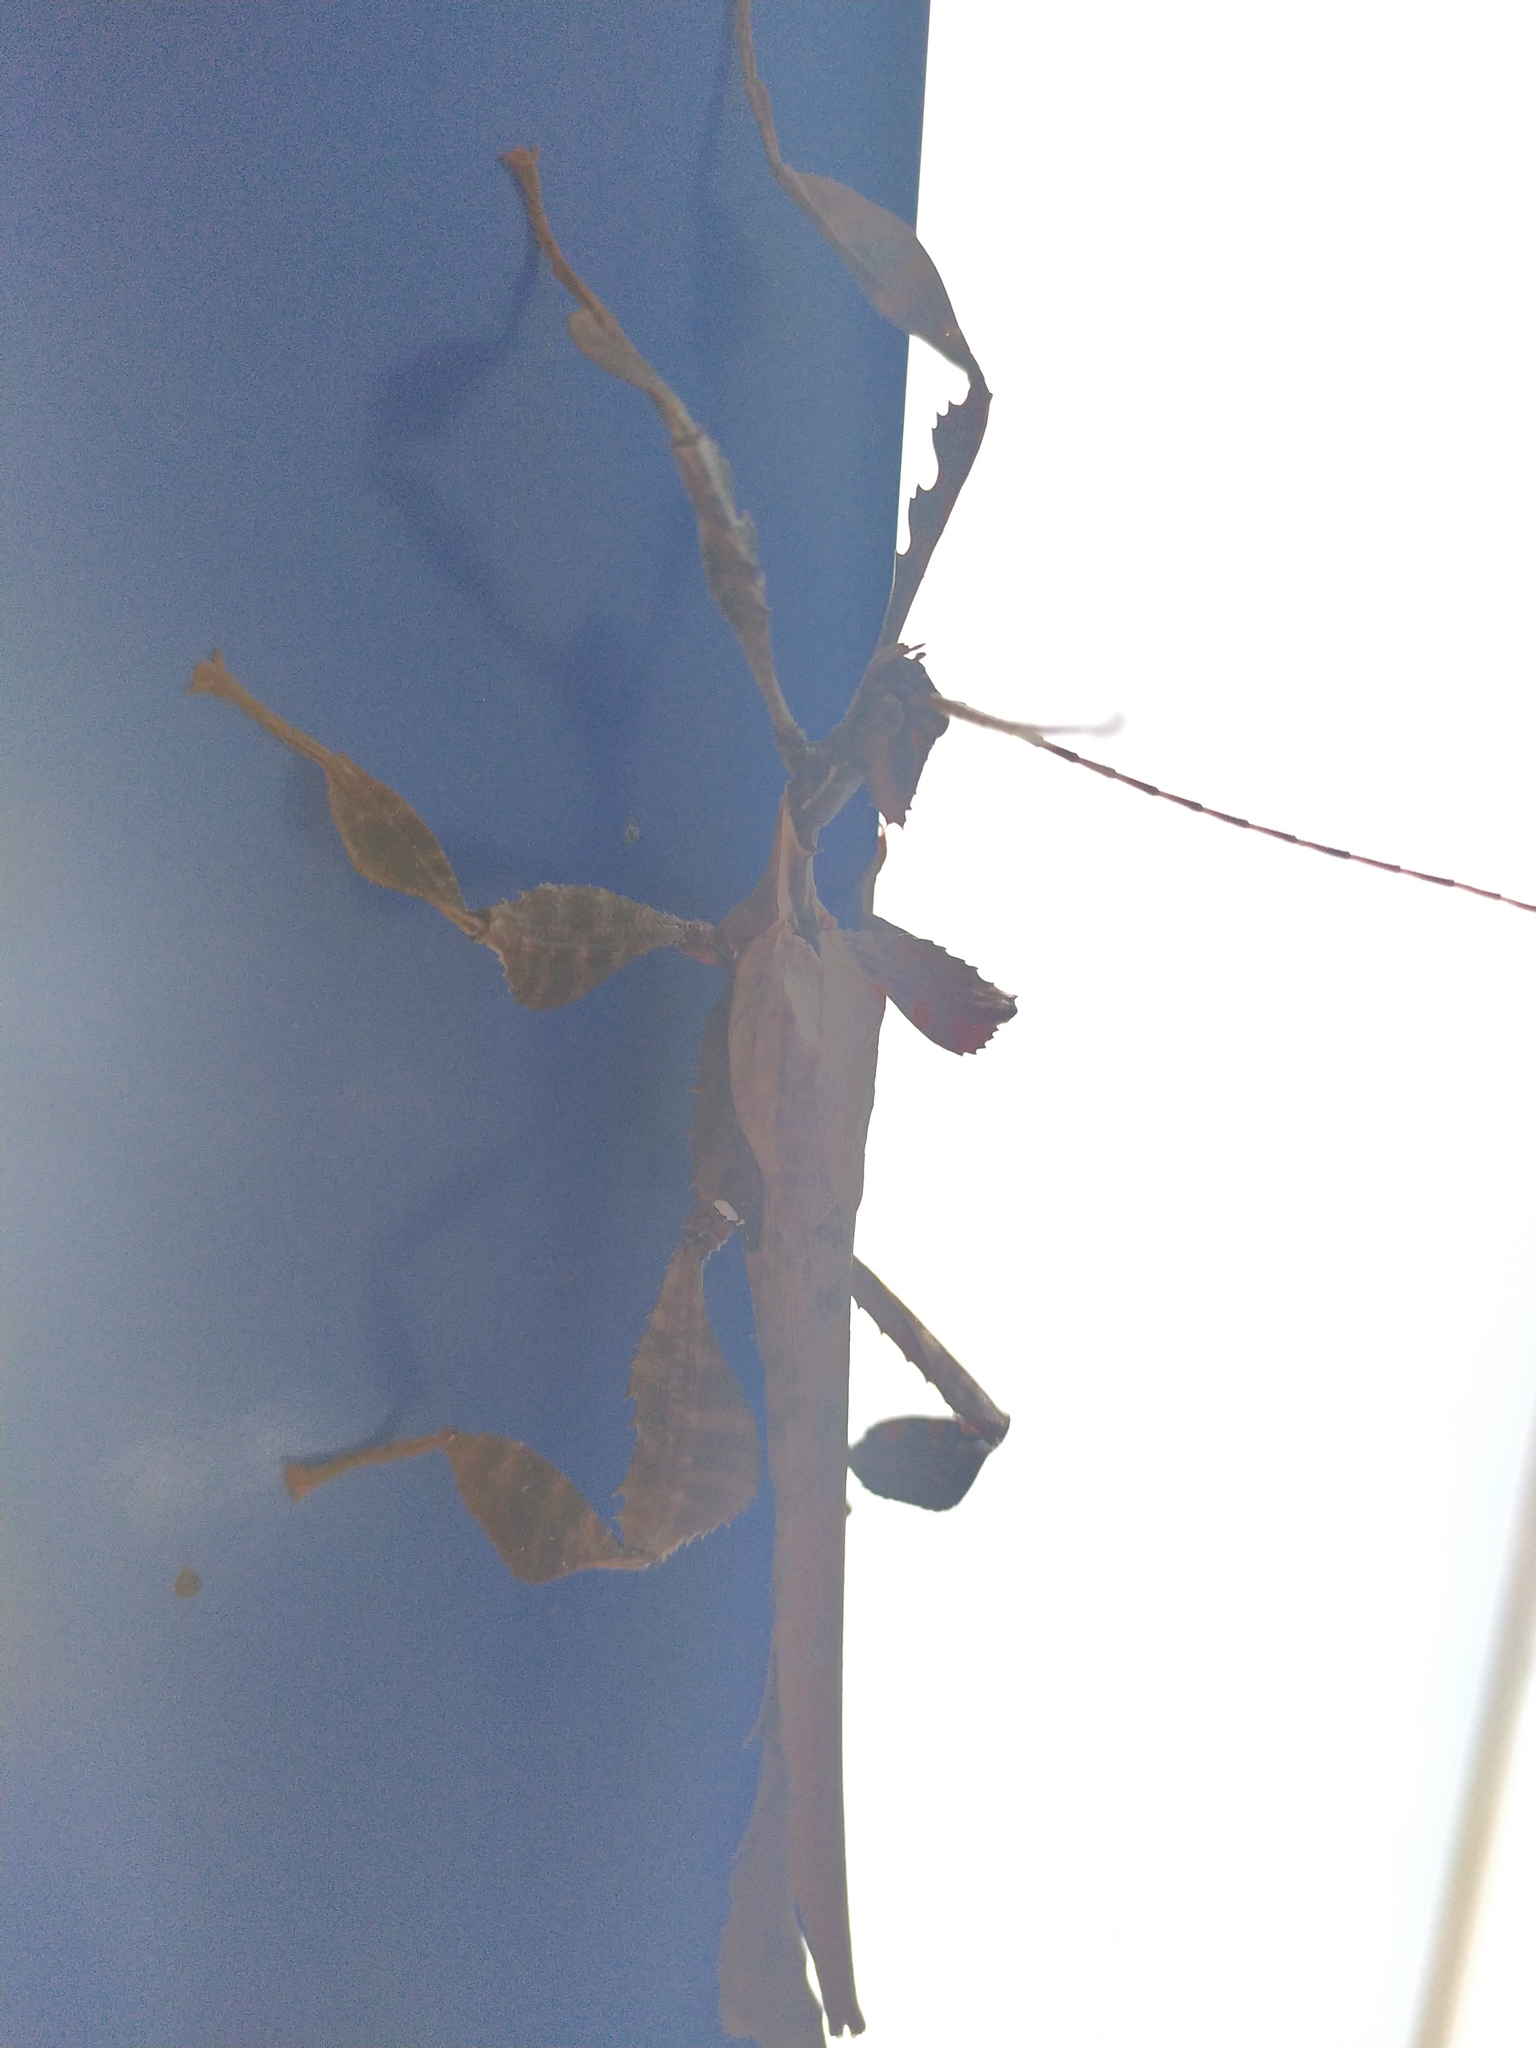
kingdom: Animalia
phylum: Arthropoda
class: Insecta
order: Phasmida
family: Phasmatidae
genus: Extatosoma
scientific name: Extatosoma tiaratum
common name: Macleay's spectre
